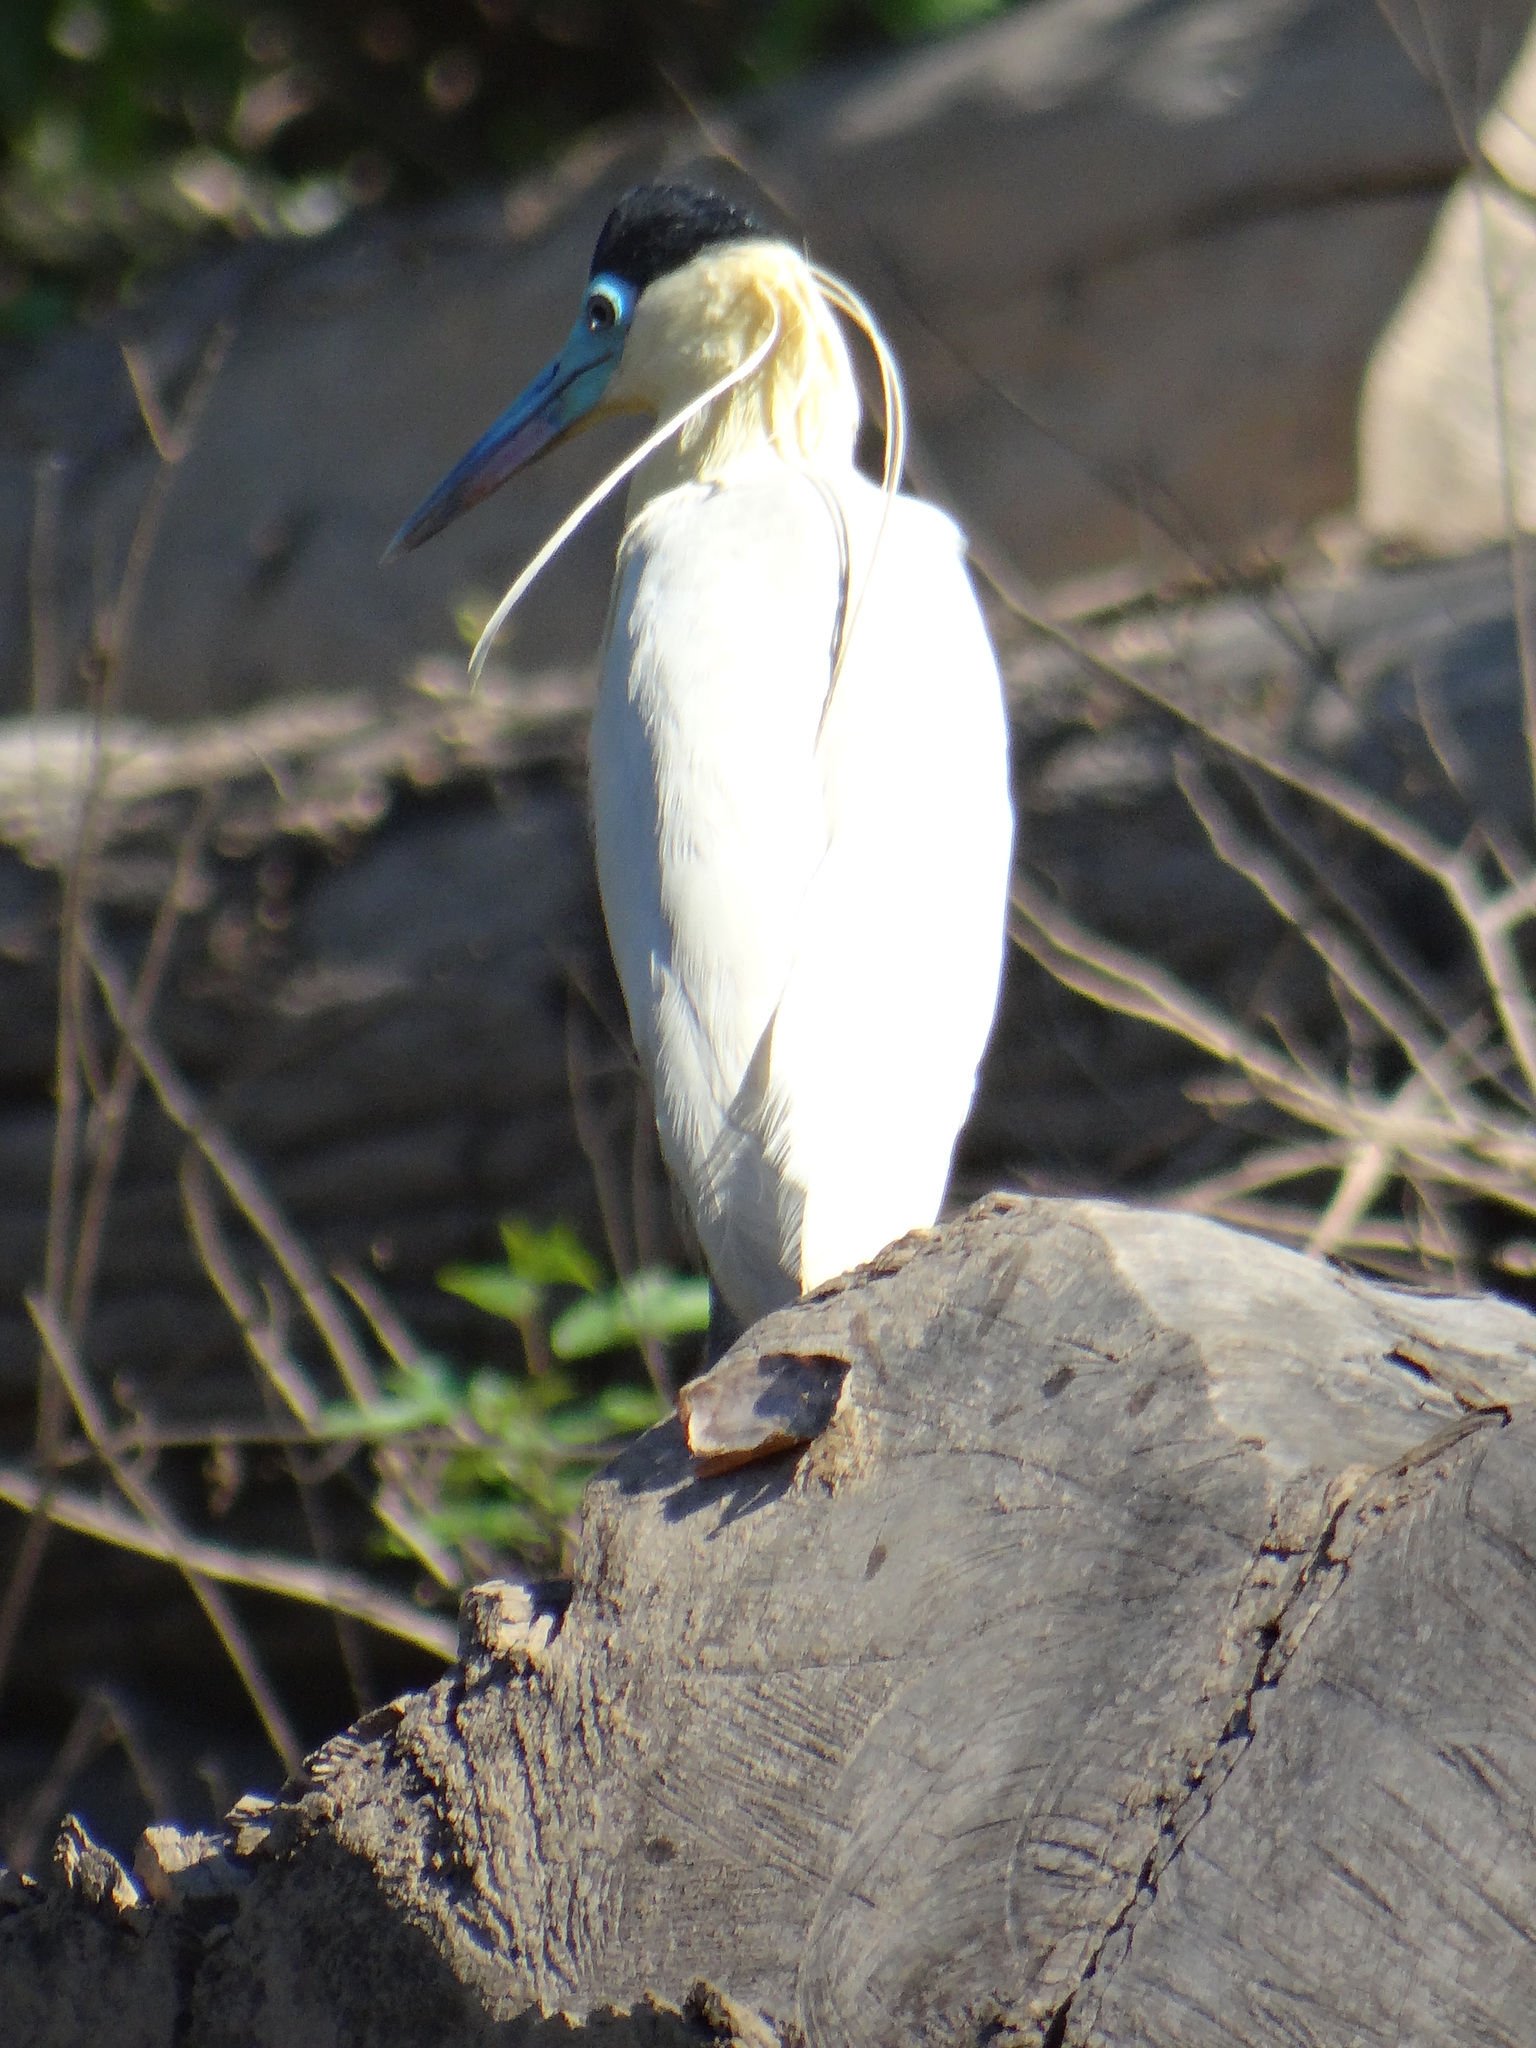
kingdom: Animalia
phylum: Chordata
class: Aves
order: Pelecaniformes
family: Ardeidae
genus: Pilherodius
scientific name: Pilherodius pileatus
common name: Capped heron
